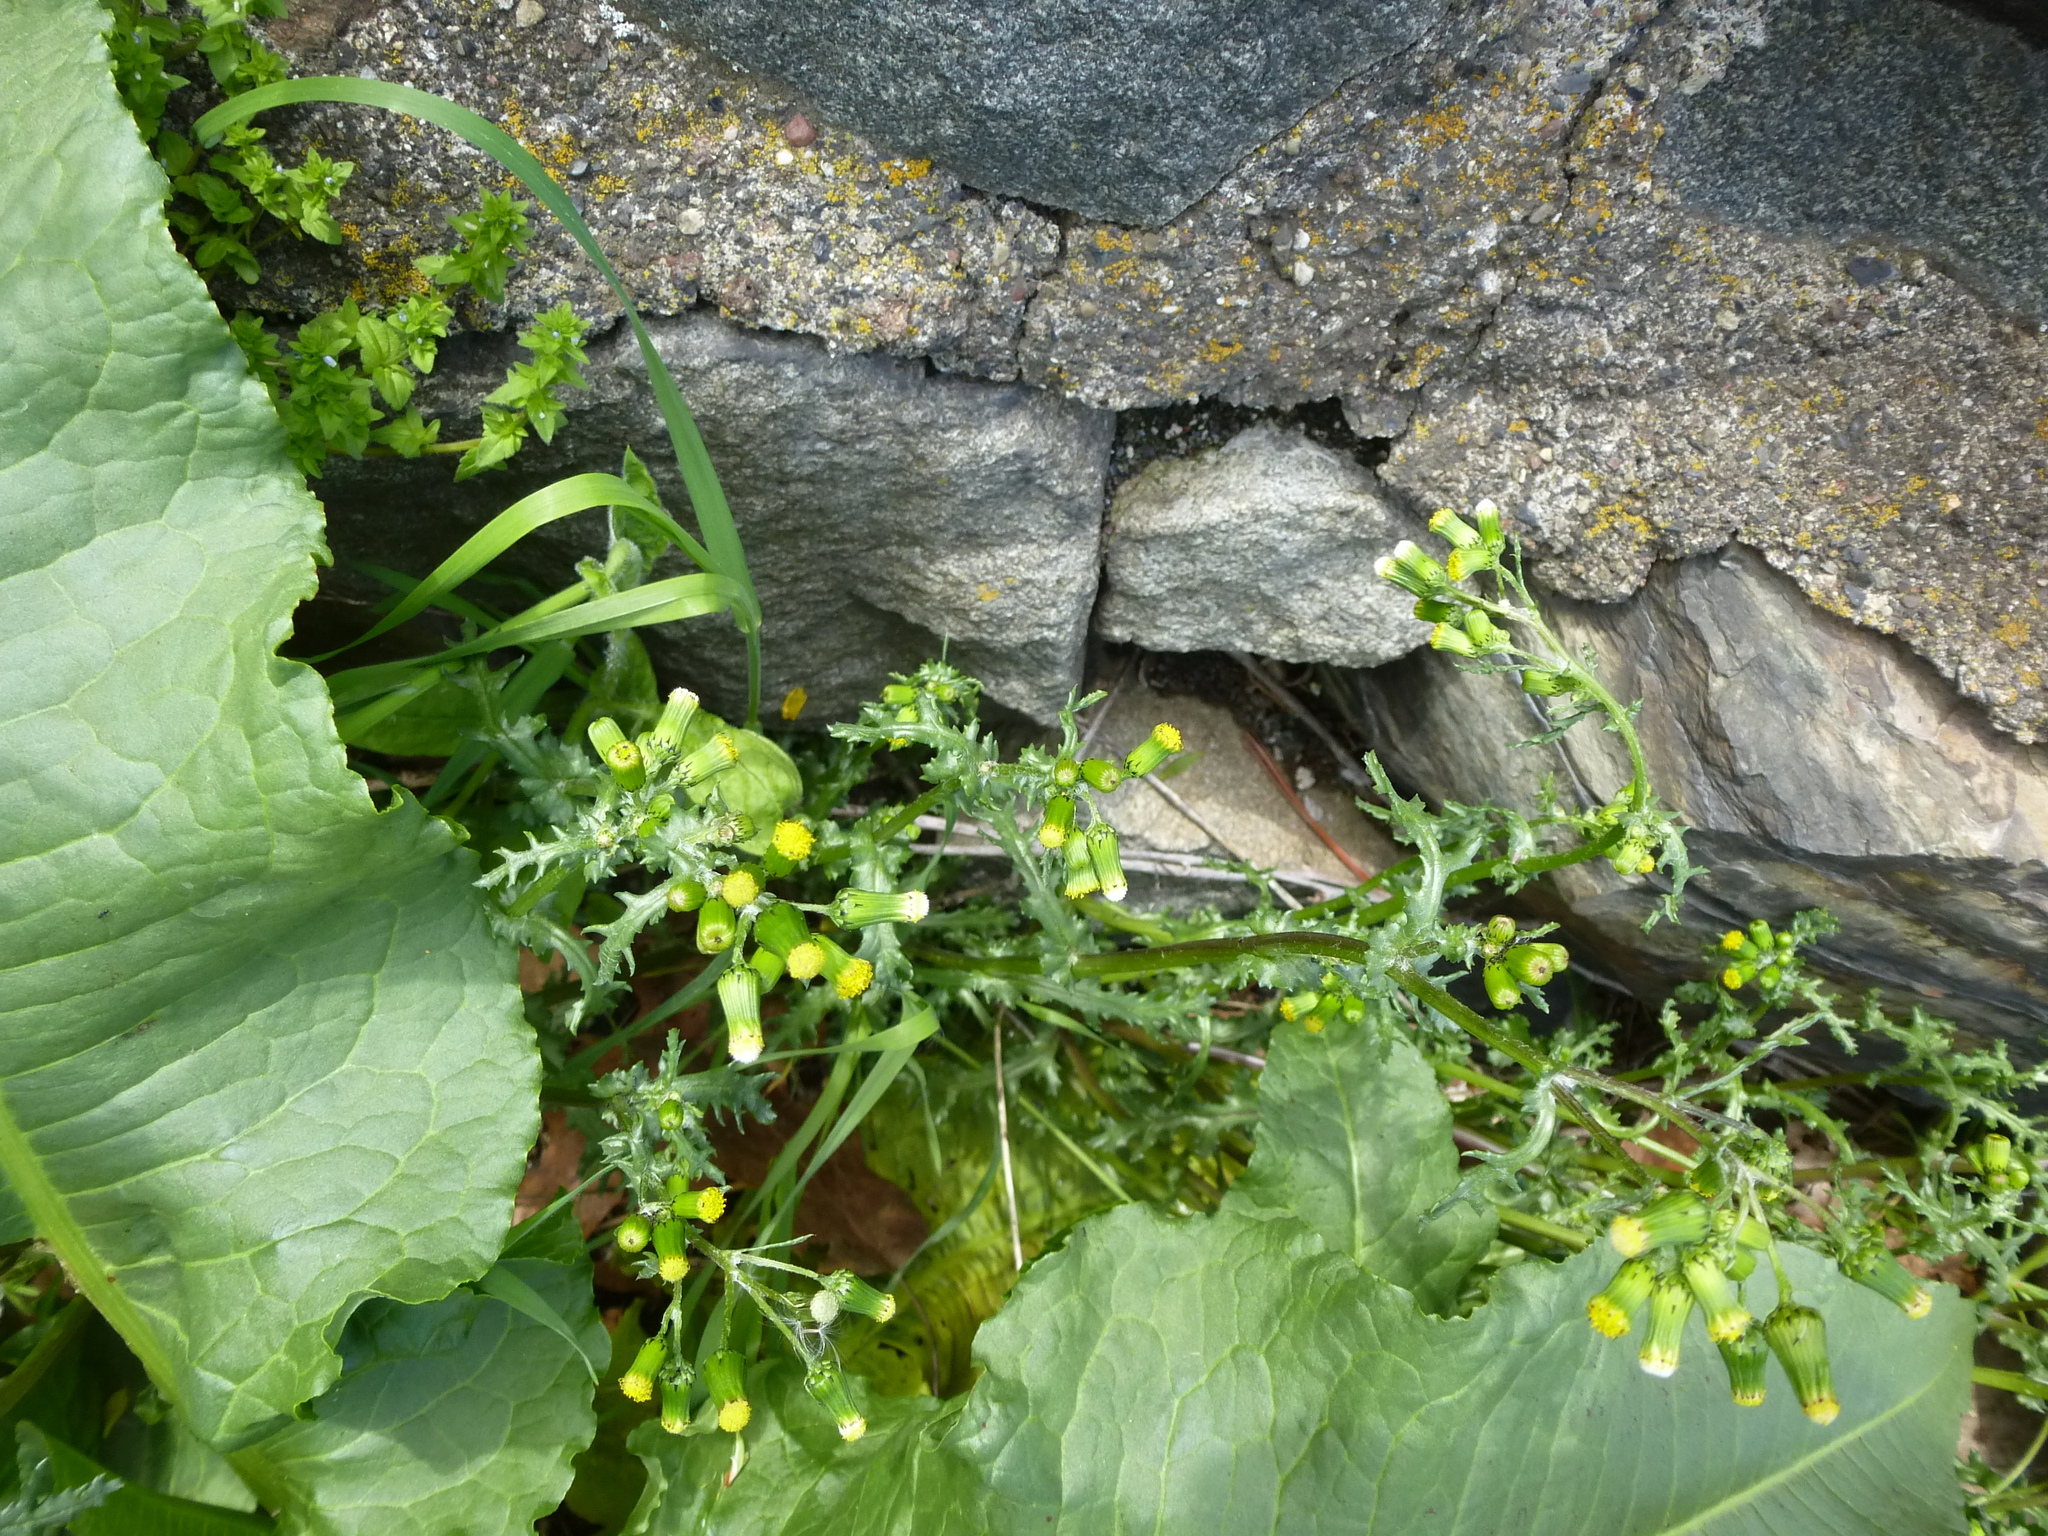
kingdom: Plantae
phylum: Tracheophyta
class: Magnoliopsida
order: Asterales
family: Asteraceae
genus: Senecio
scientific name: Senecio vulgaris
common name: Old-man-in-the-spring
